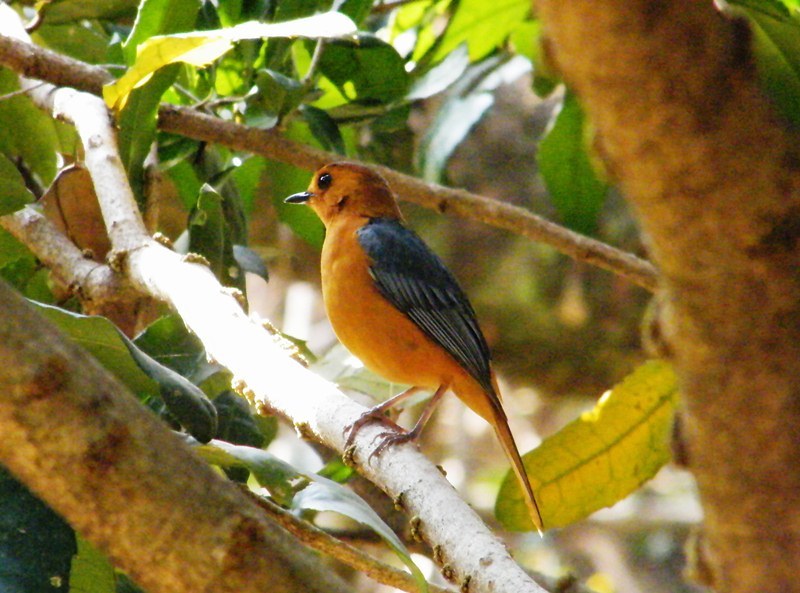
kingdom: Animalia
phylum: Chordata
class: Aves
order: Passeriformes
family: Muscicapidae
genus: Cossypha
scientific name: Cossypha natalensis
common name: Red-capped robin-chat
